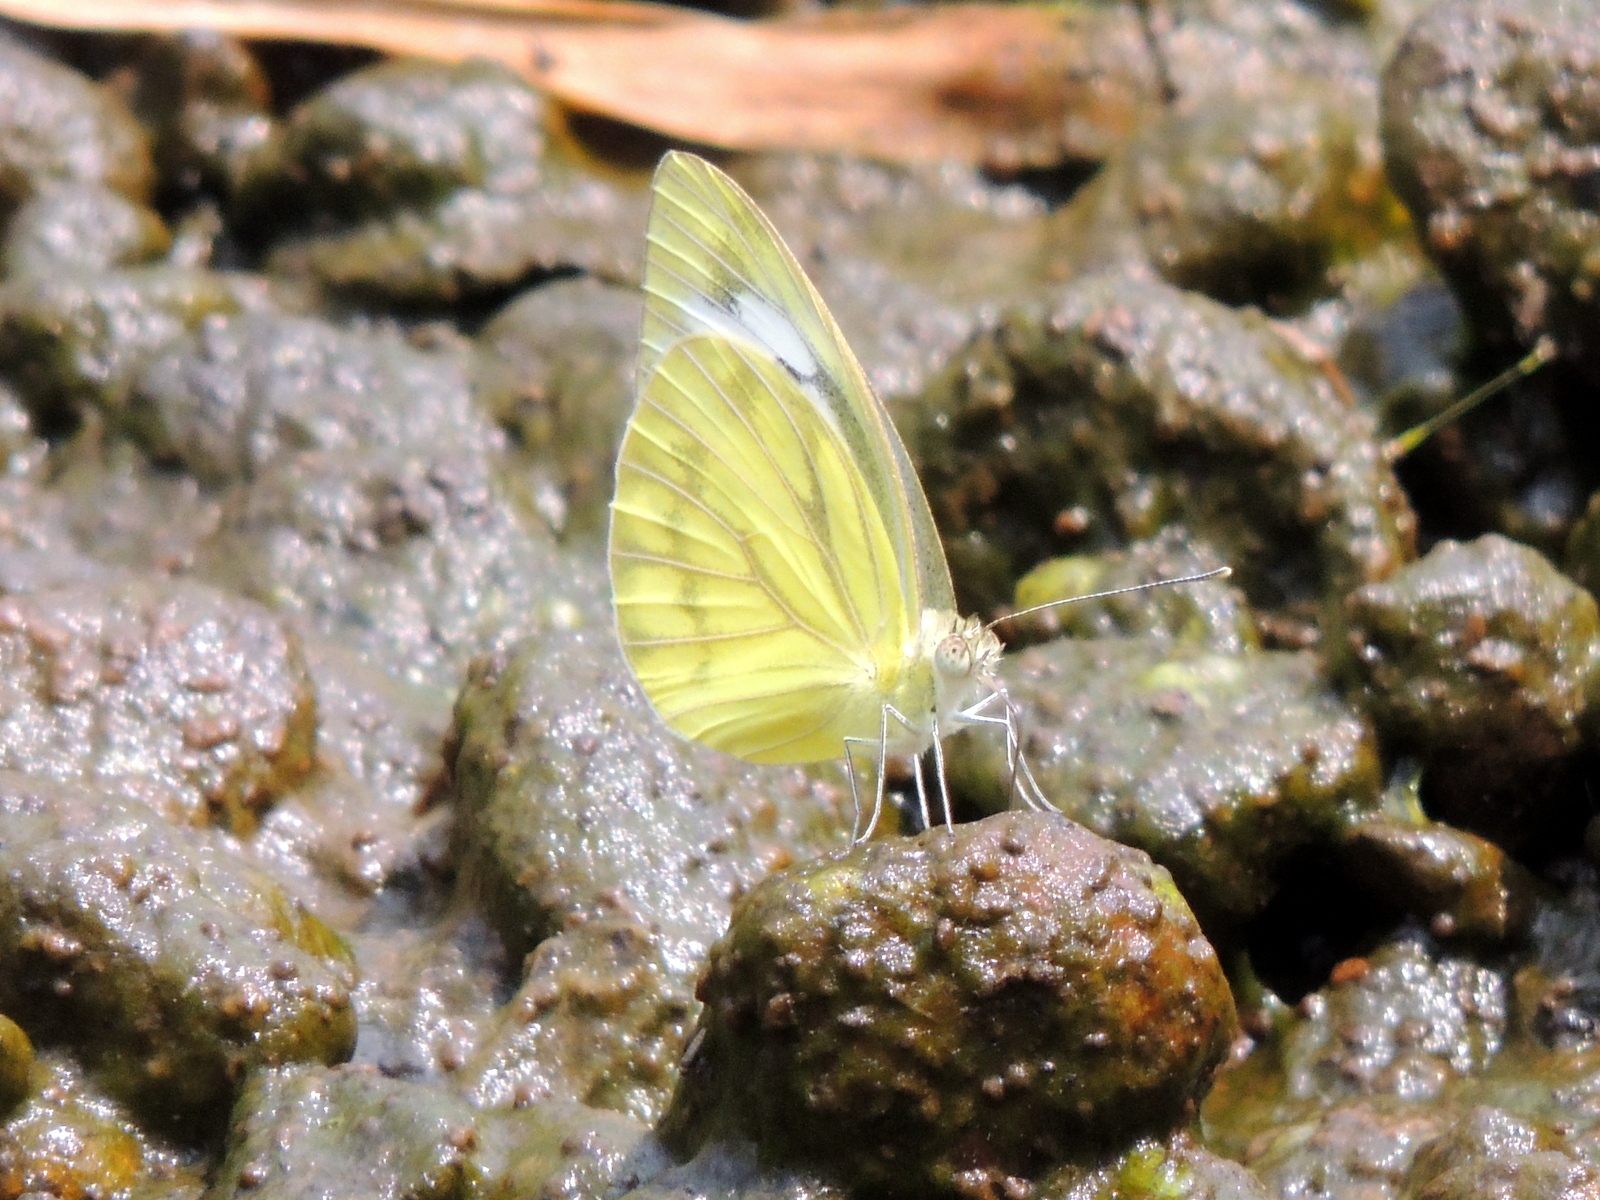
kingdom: Animalia
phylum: Arthropoda
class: Insecta
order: Lepidoptera
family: Pieridae
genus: Cepora
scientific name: Cepora nerissa
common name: Common gull
